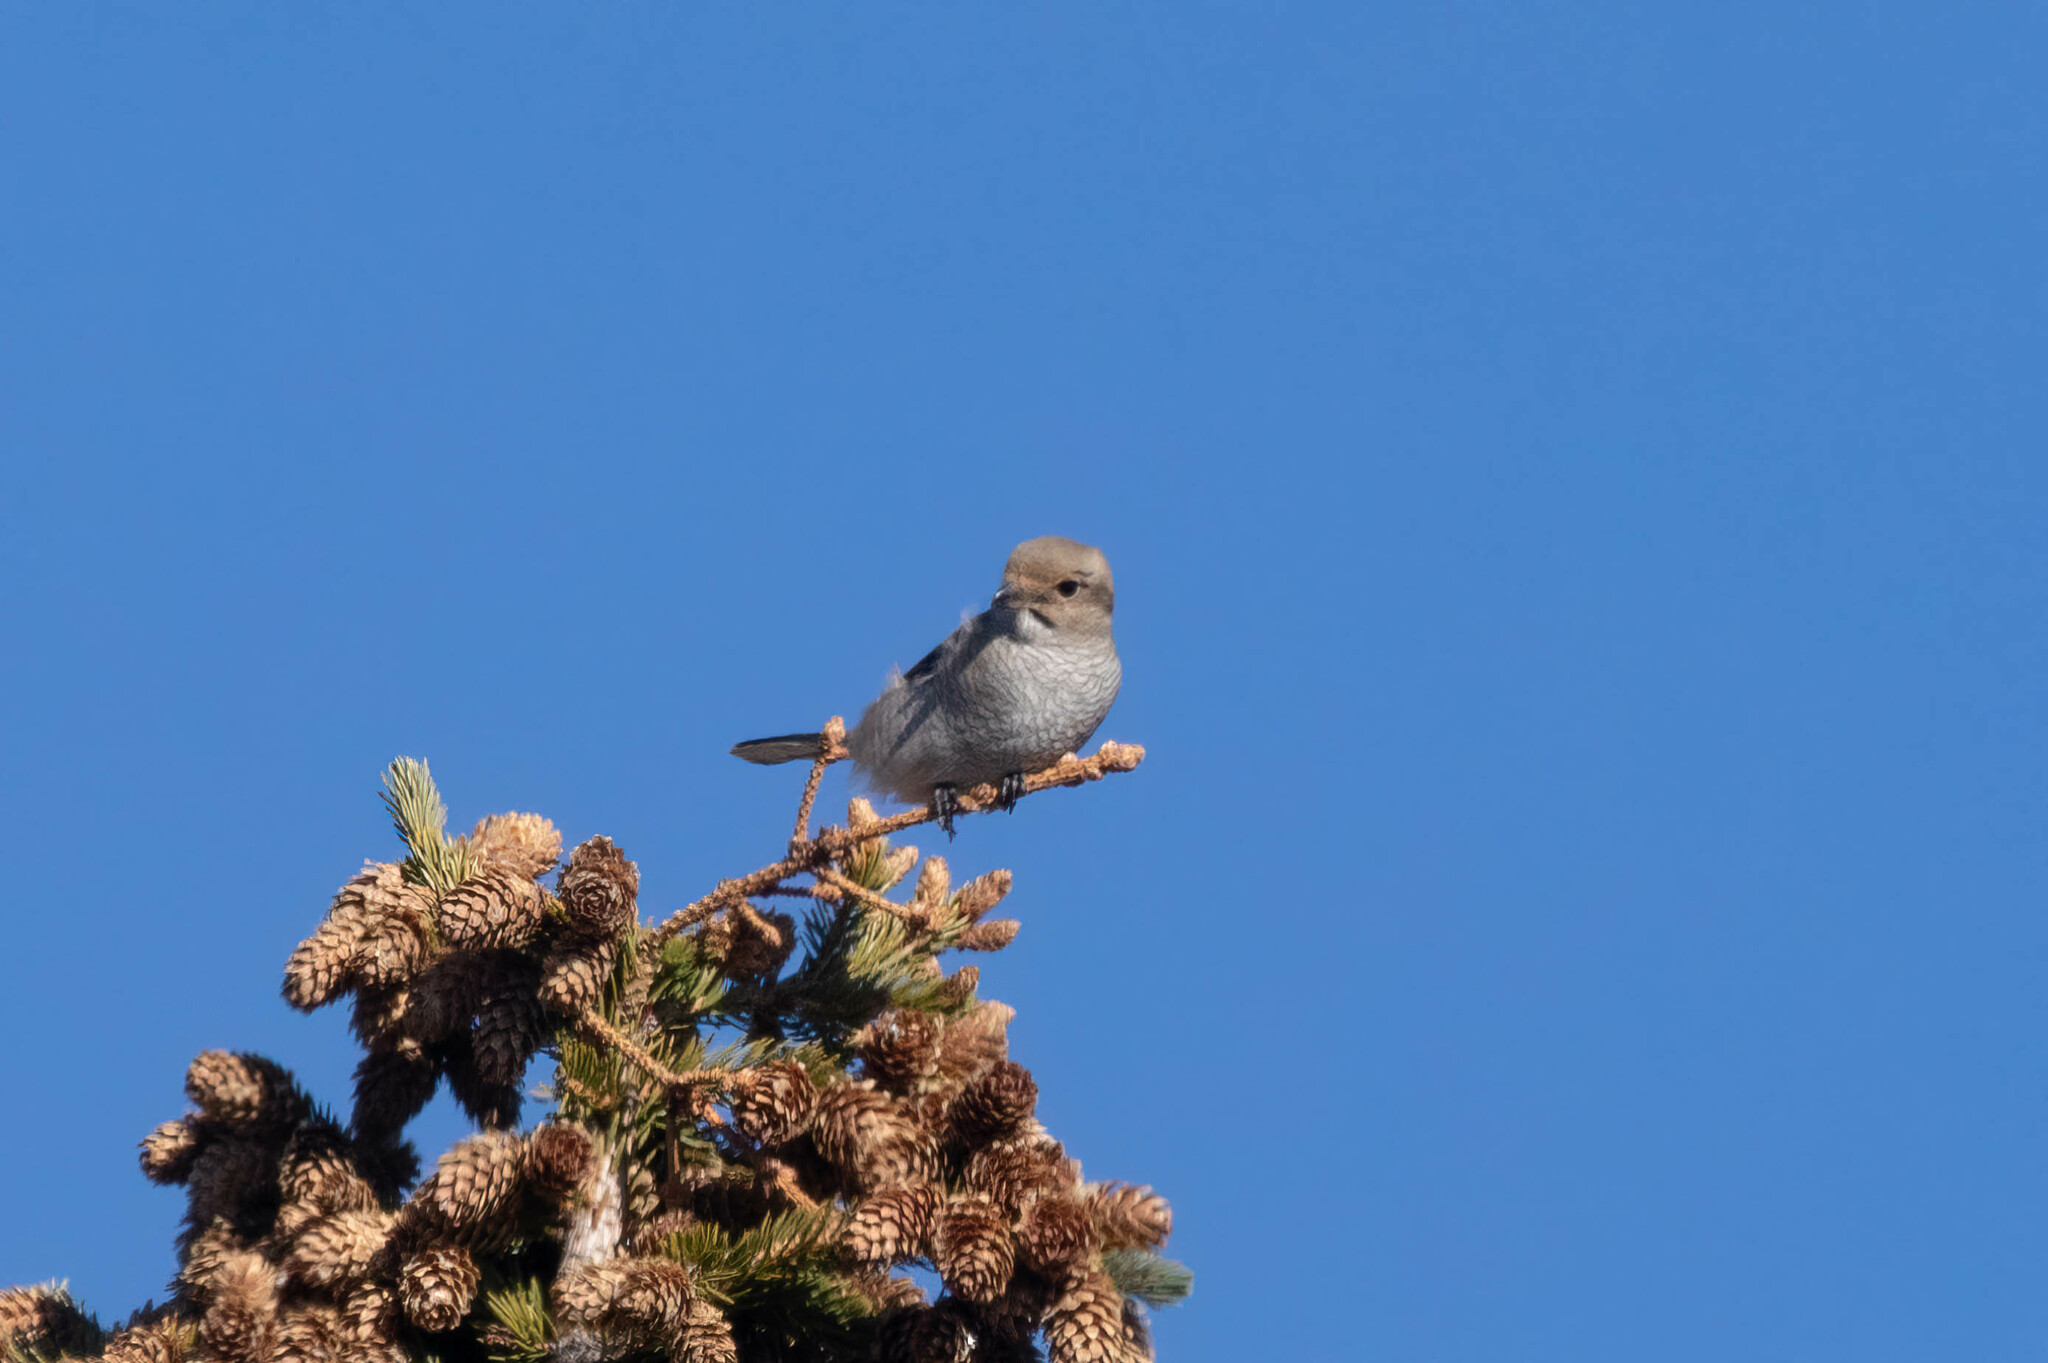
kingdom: Animalia
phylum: Chordata
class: Aves
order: Passeriformes
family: Laniidae
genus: Lanius
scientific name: Lanius borealis
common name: Northern shrike
